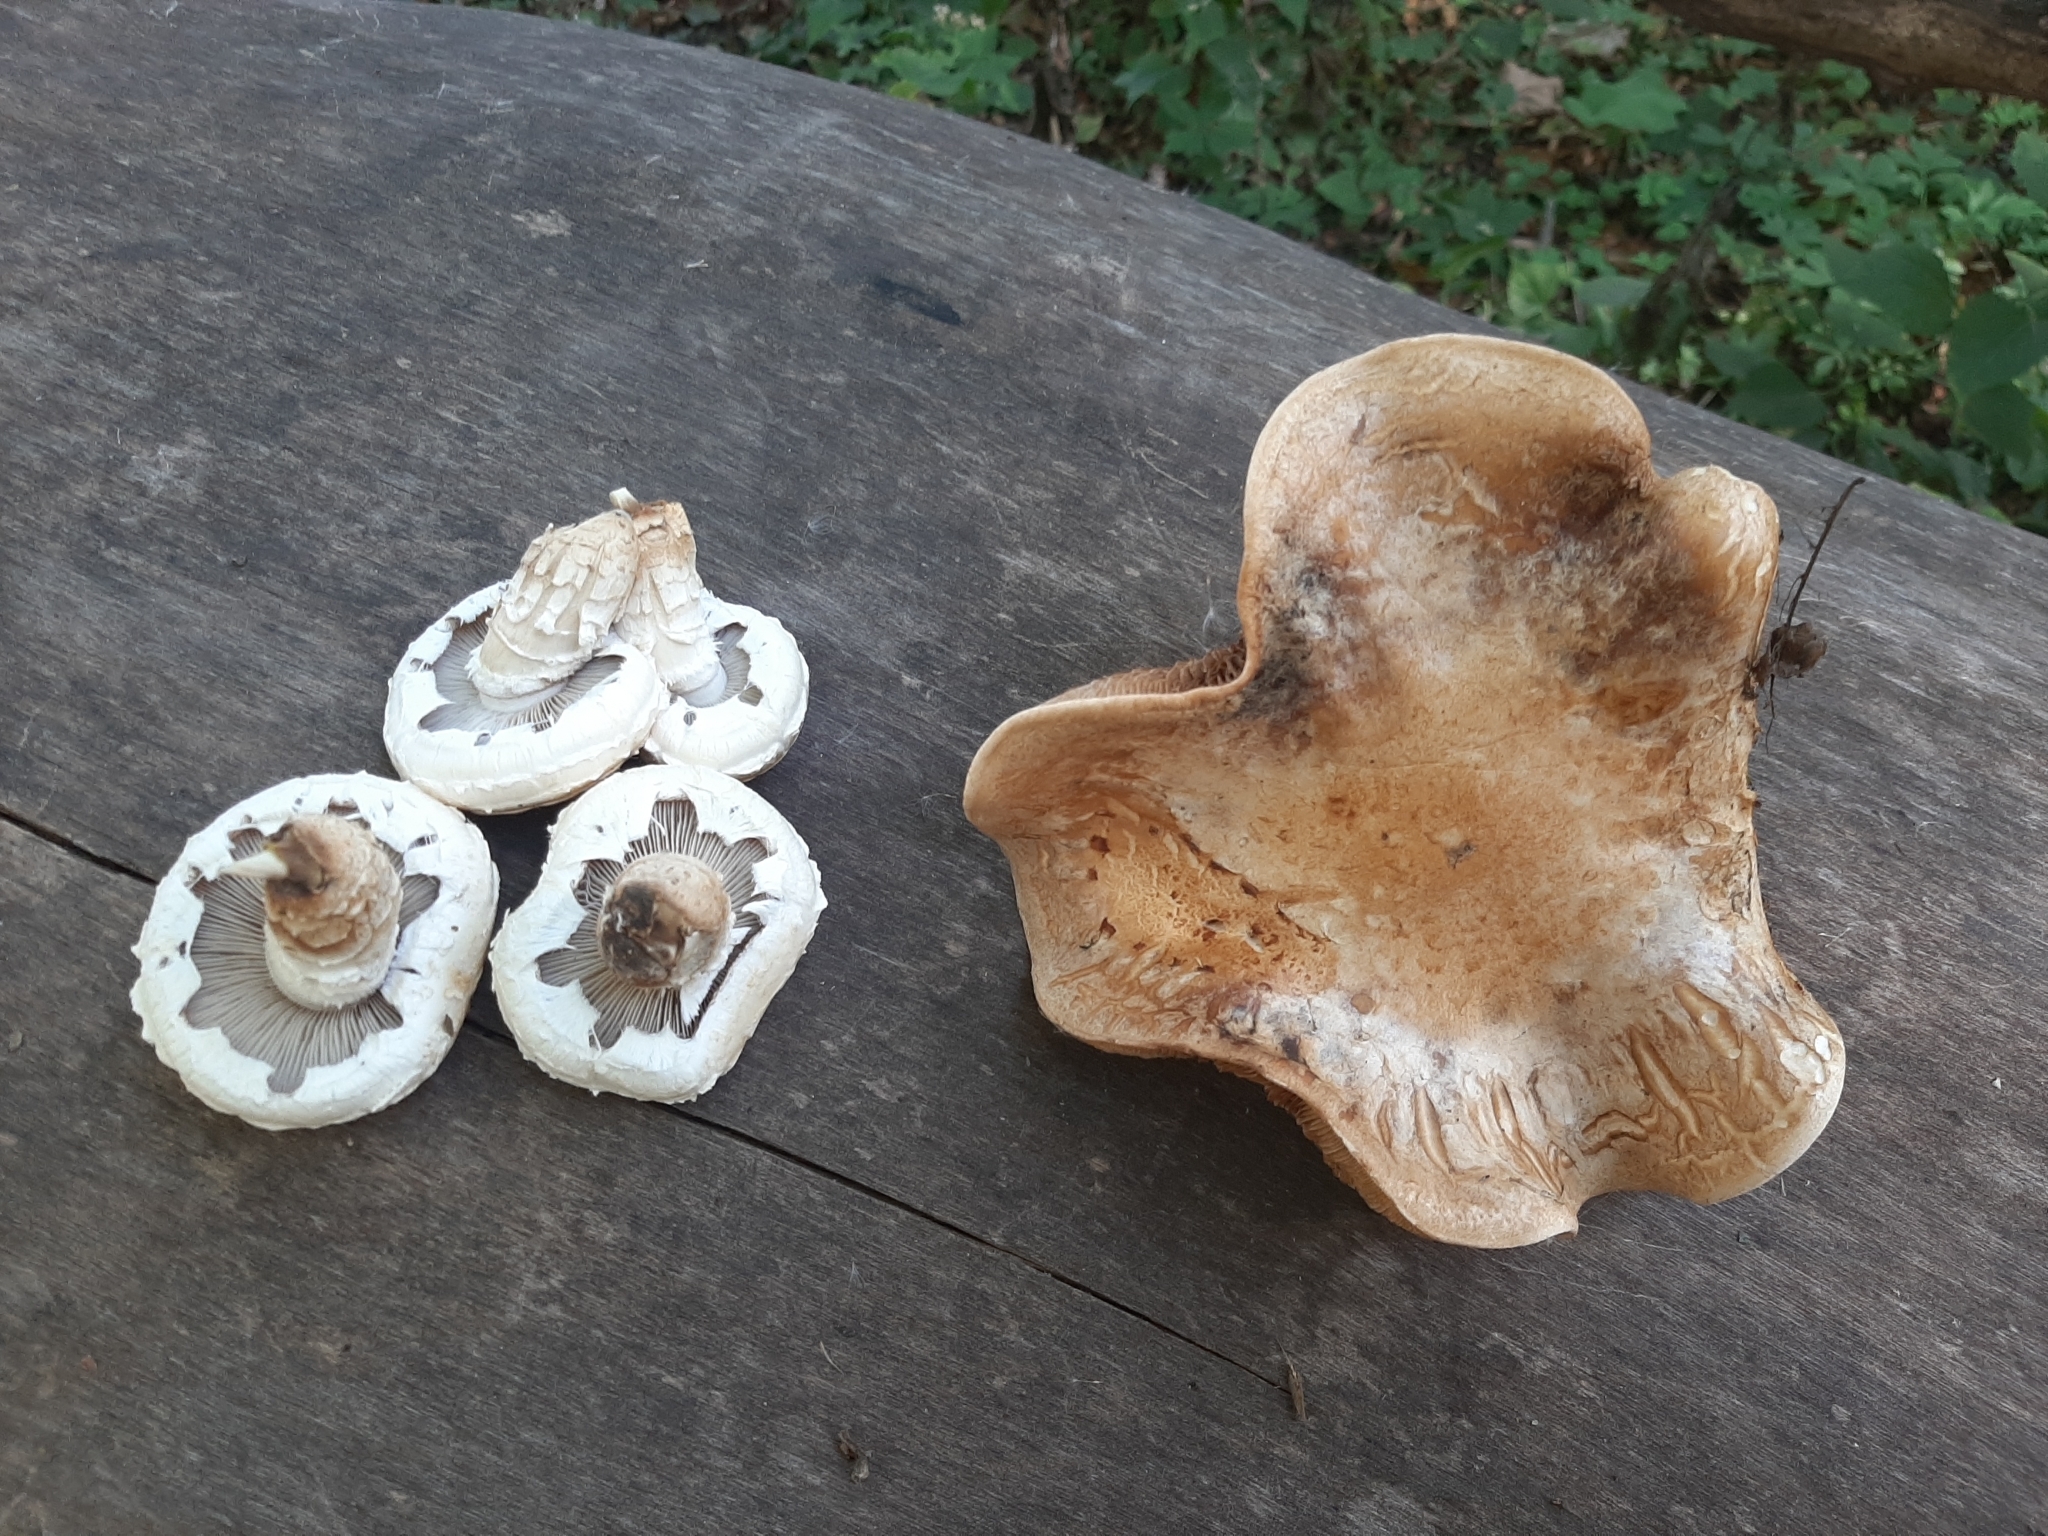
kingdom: Fungi
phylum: Basidiomycota
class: Agaricomycetes
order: Agaricales
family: Strophariaceae
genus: Pholiota
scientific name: Pholiota populnea
